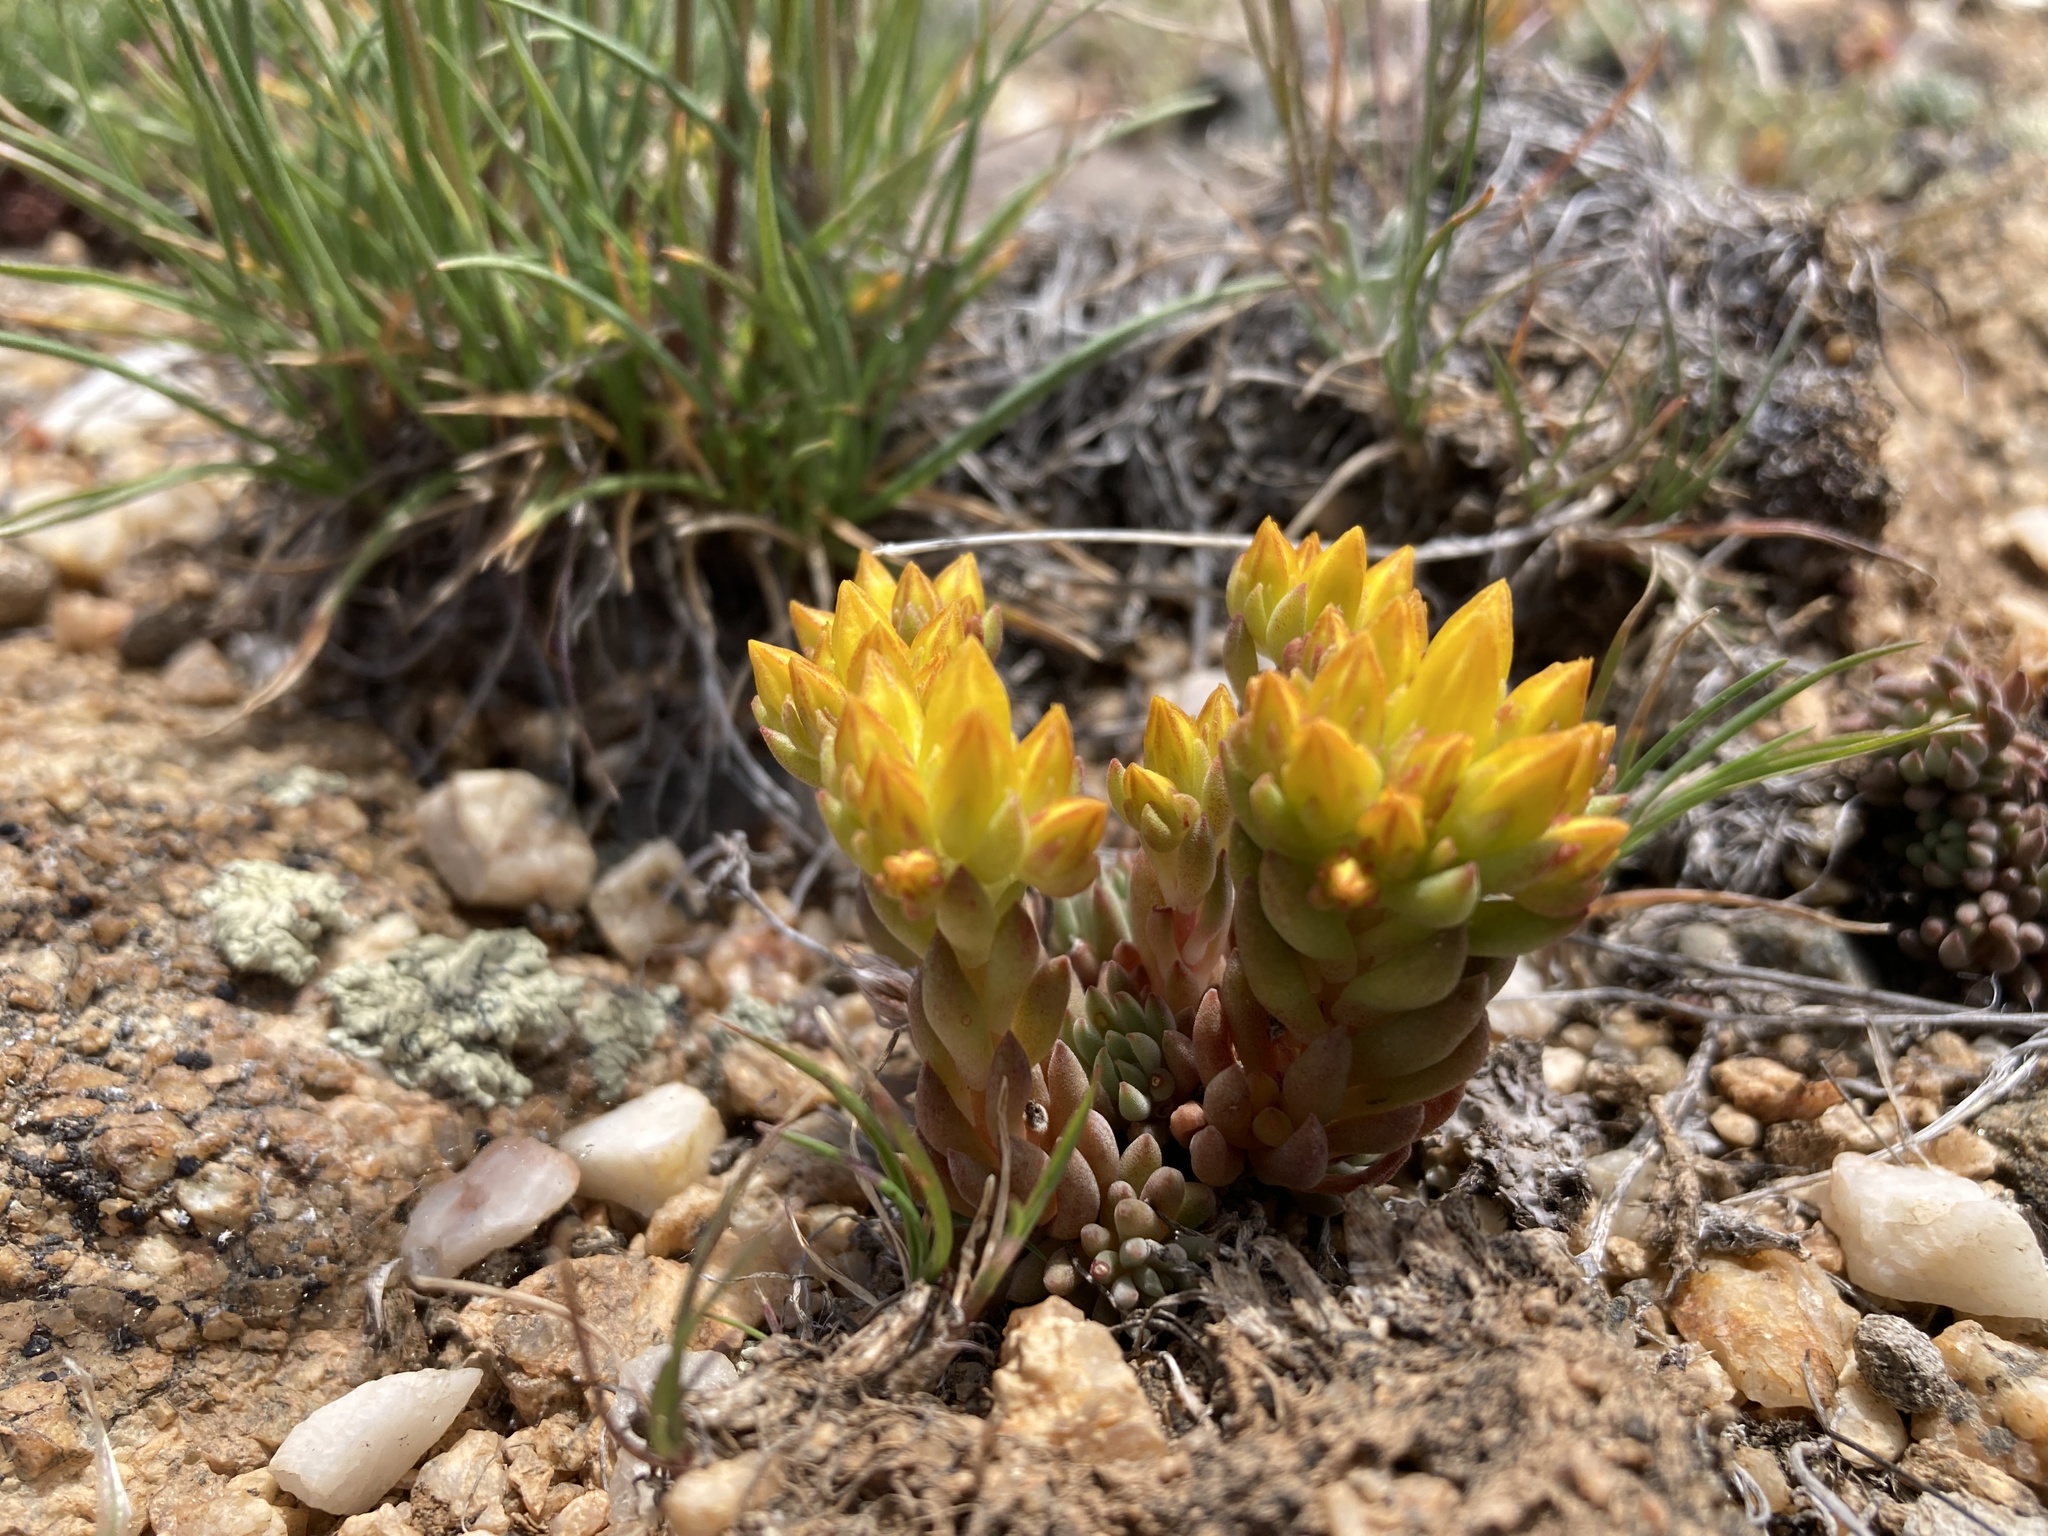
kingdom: Plantae
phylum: Tracheophyta
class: Magnoliopsida
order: Saxifragales
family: Crassulaceae
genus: Sedum
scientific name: Sedum lanceolatum
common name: Common stonecrop
